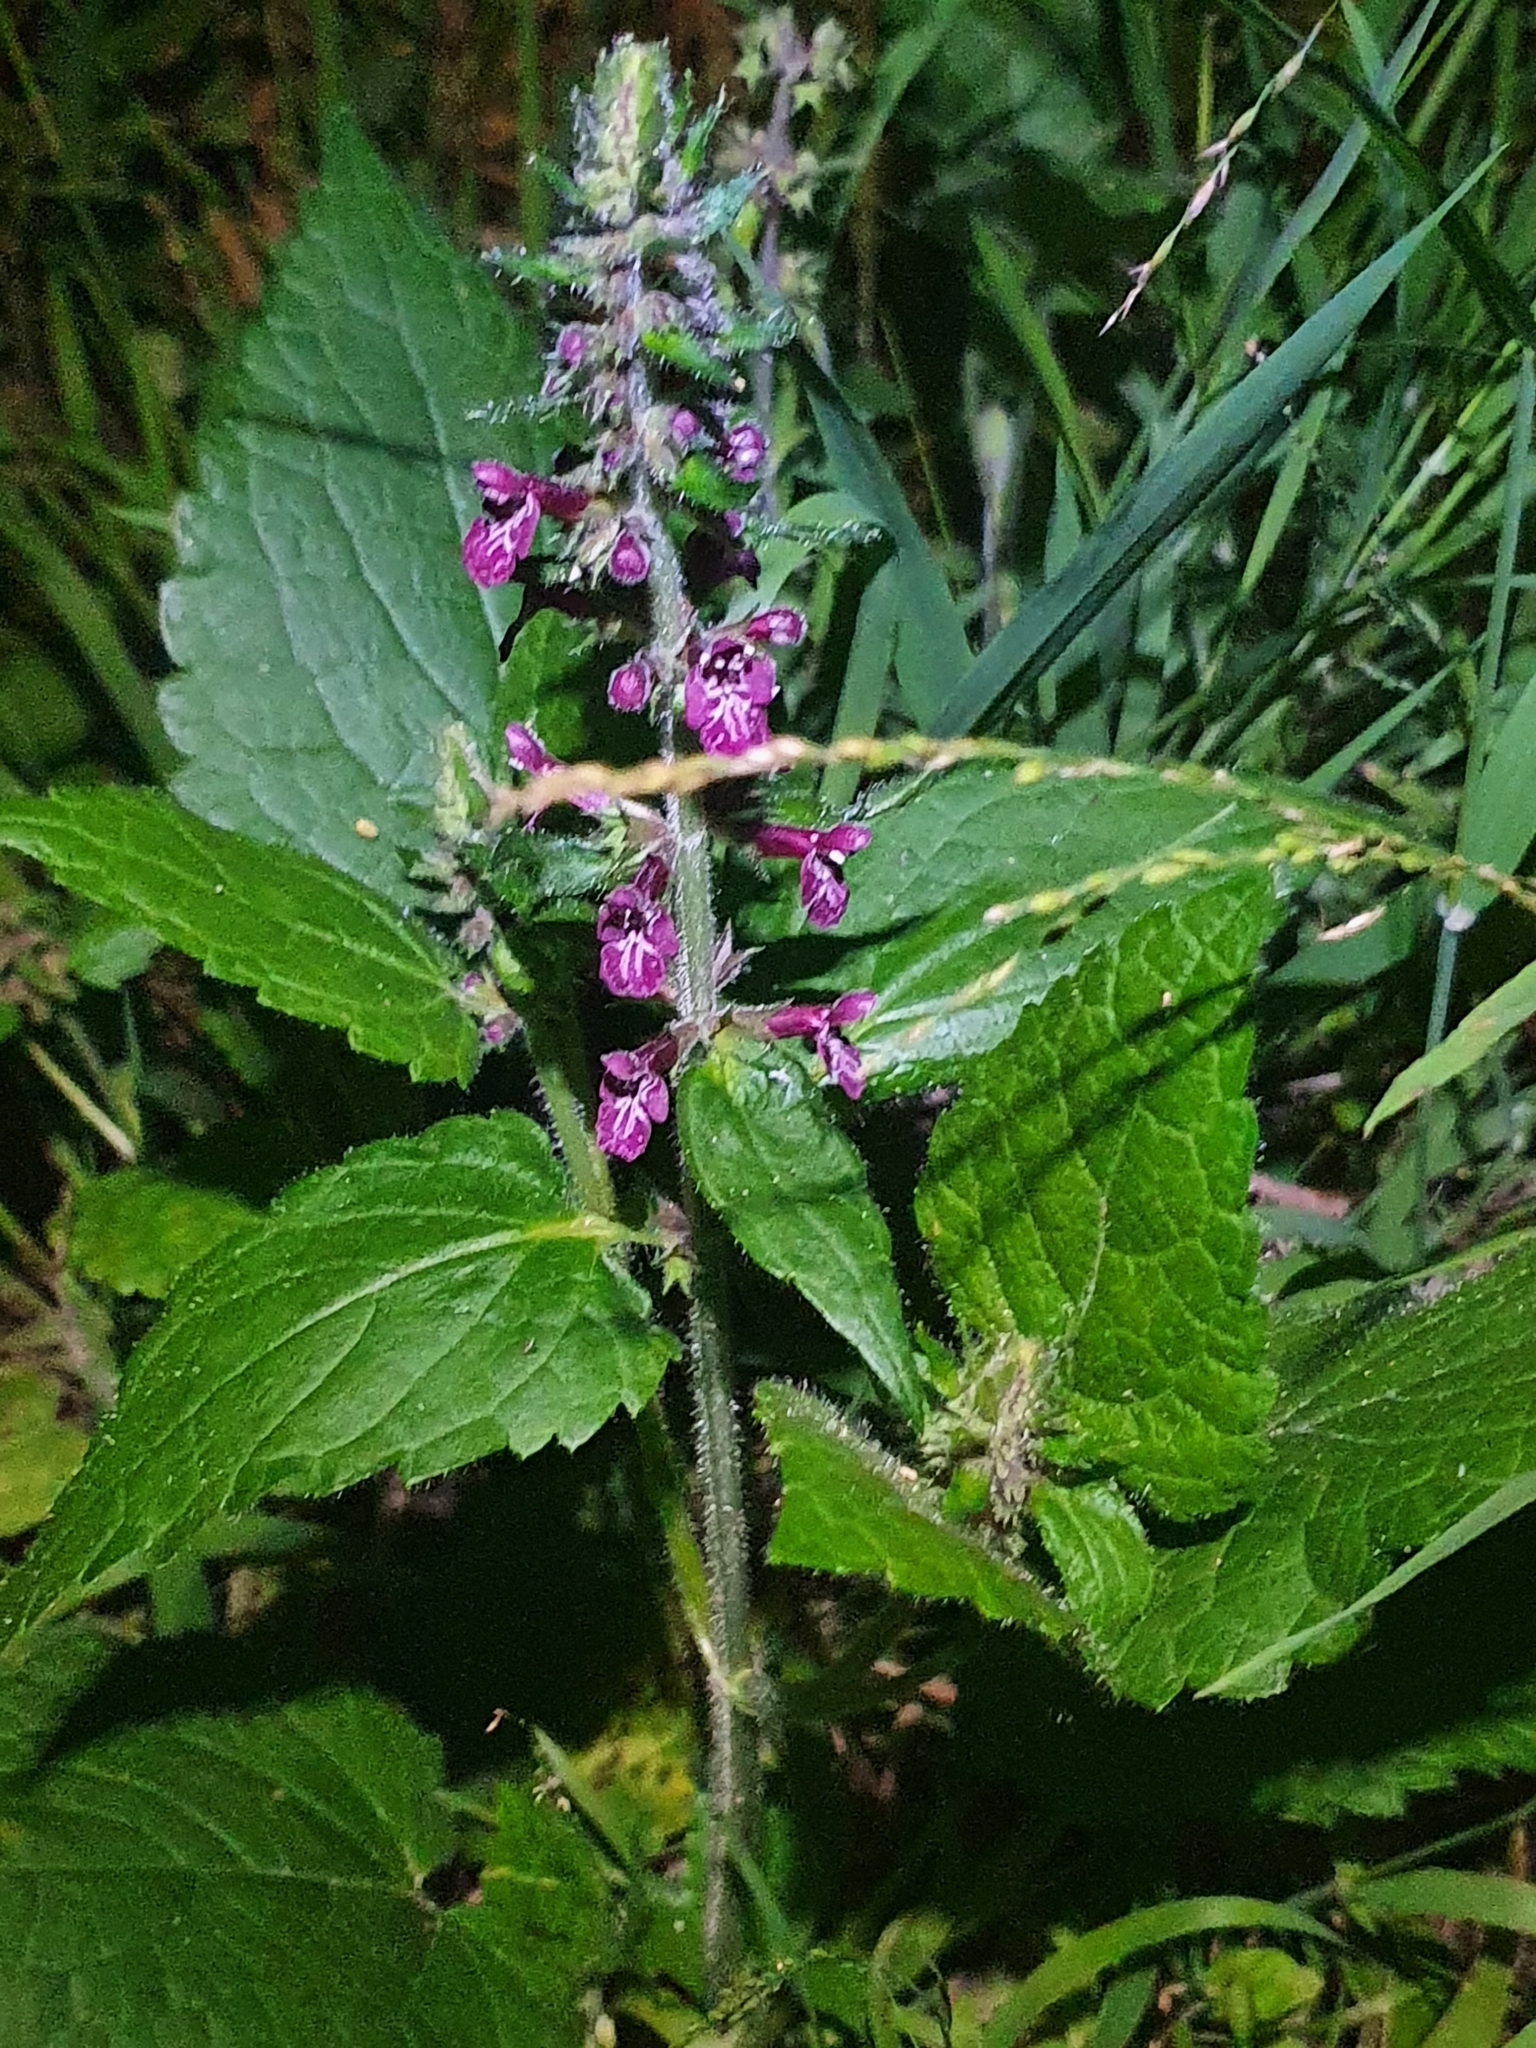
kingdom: Plantae
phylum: Tracheophyta
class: Magnoliopsida
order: Lamiales
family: Lamiaceae
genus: Stachys
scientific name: Stachys sylvatica
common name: Hedge woundwort
